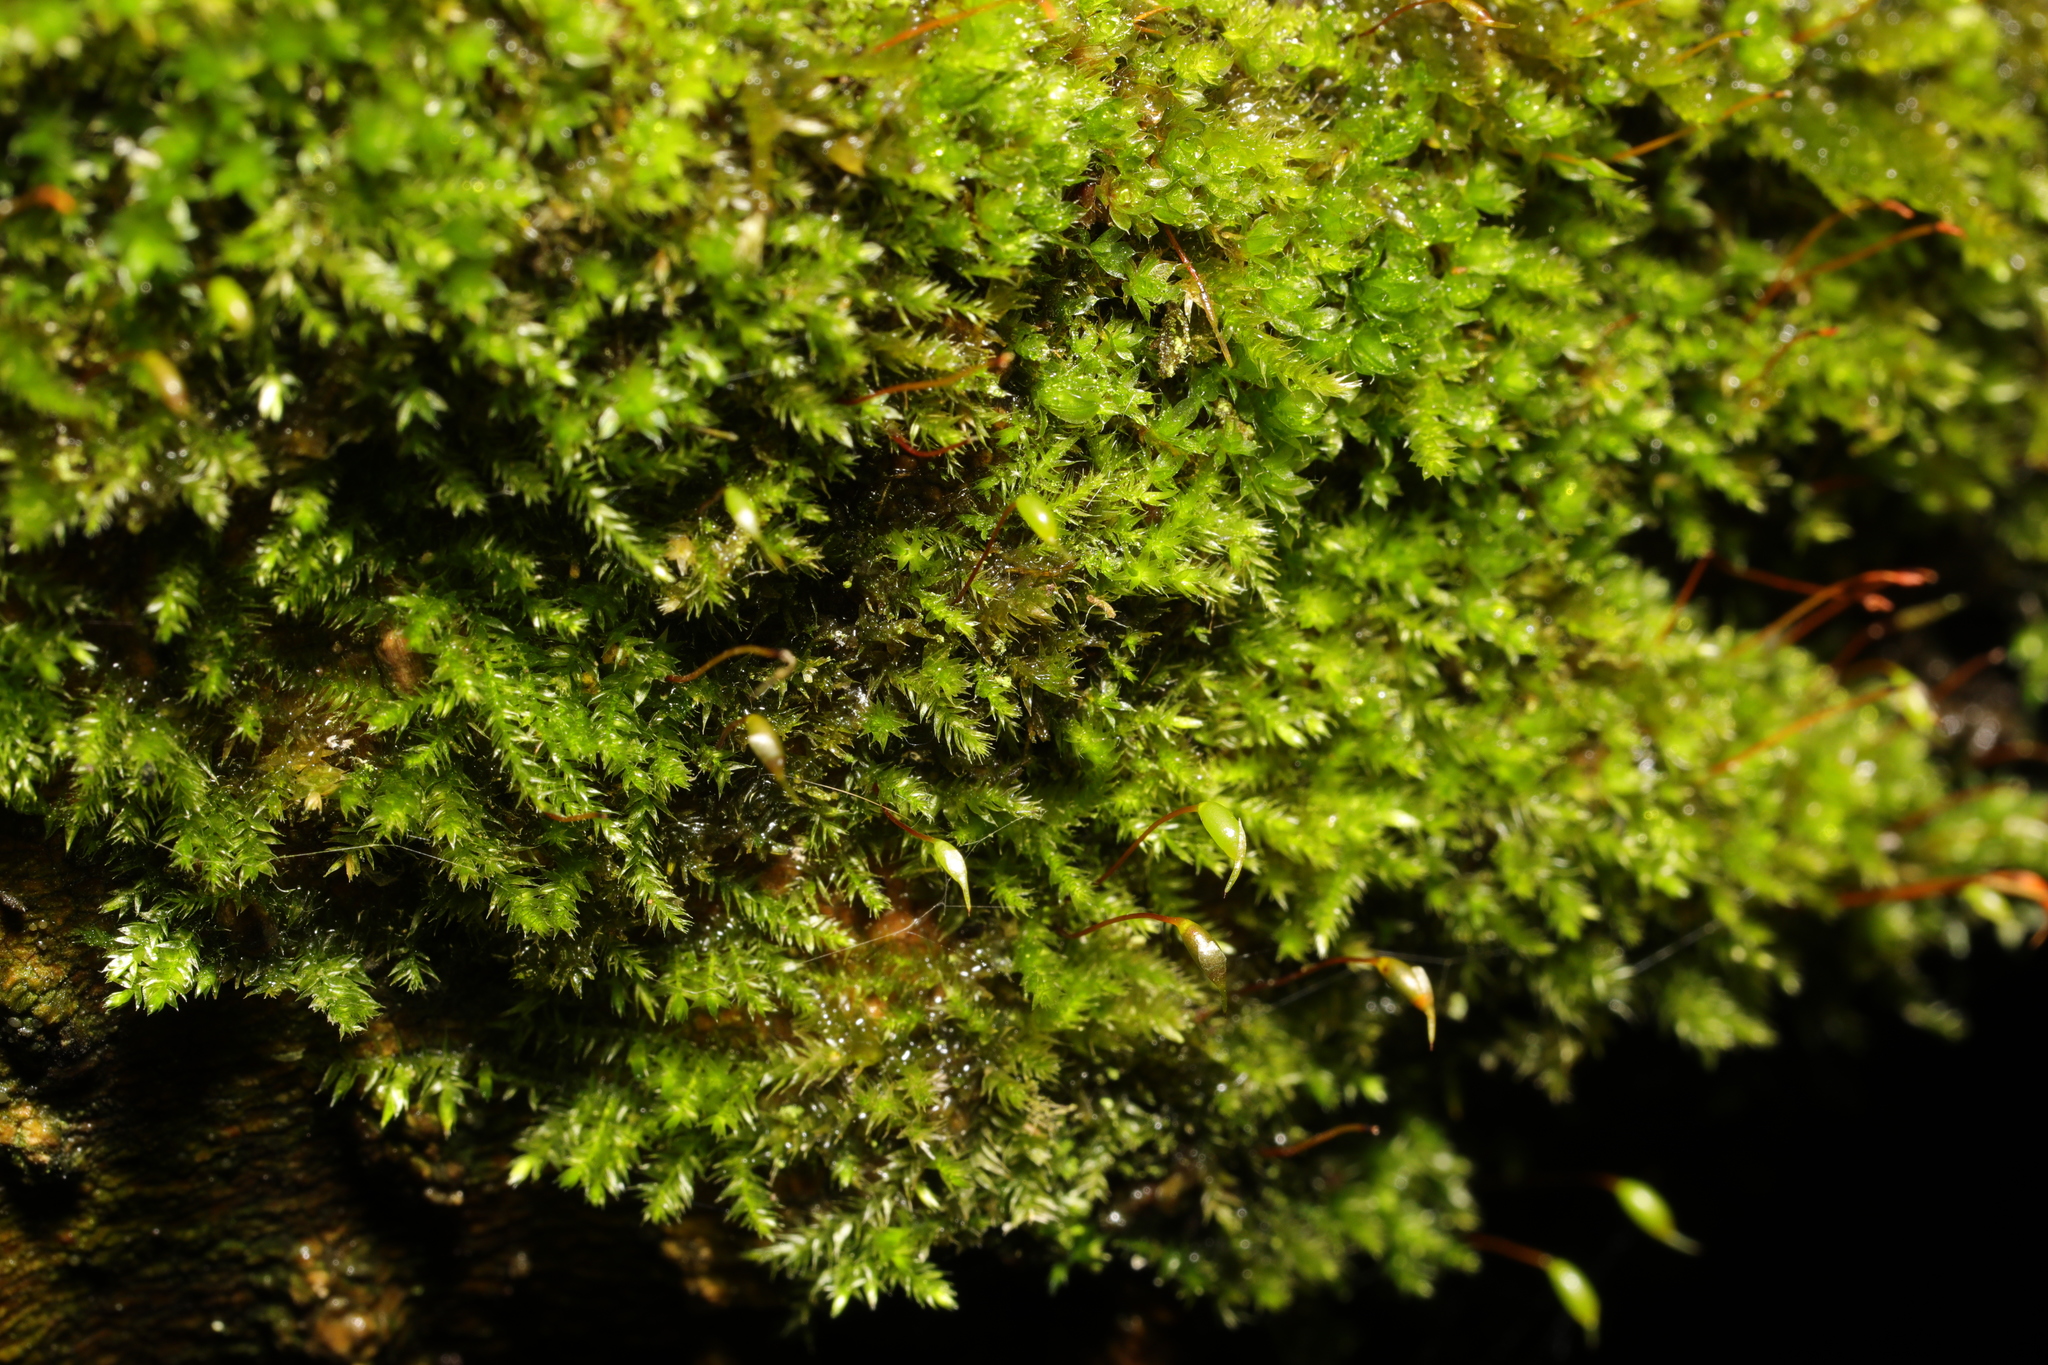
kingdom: Plantae
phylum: Bryophyta
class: Bryopsida
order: Hypnales
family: Brachytheciaceae
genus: Rhynchostegium
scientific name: Rhynchostegium confertum
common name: Clustered feather-moss
